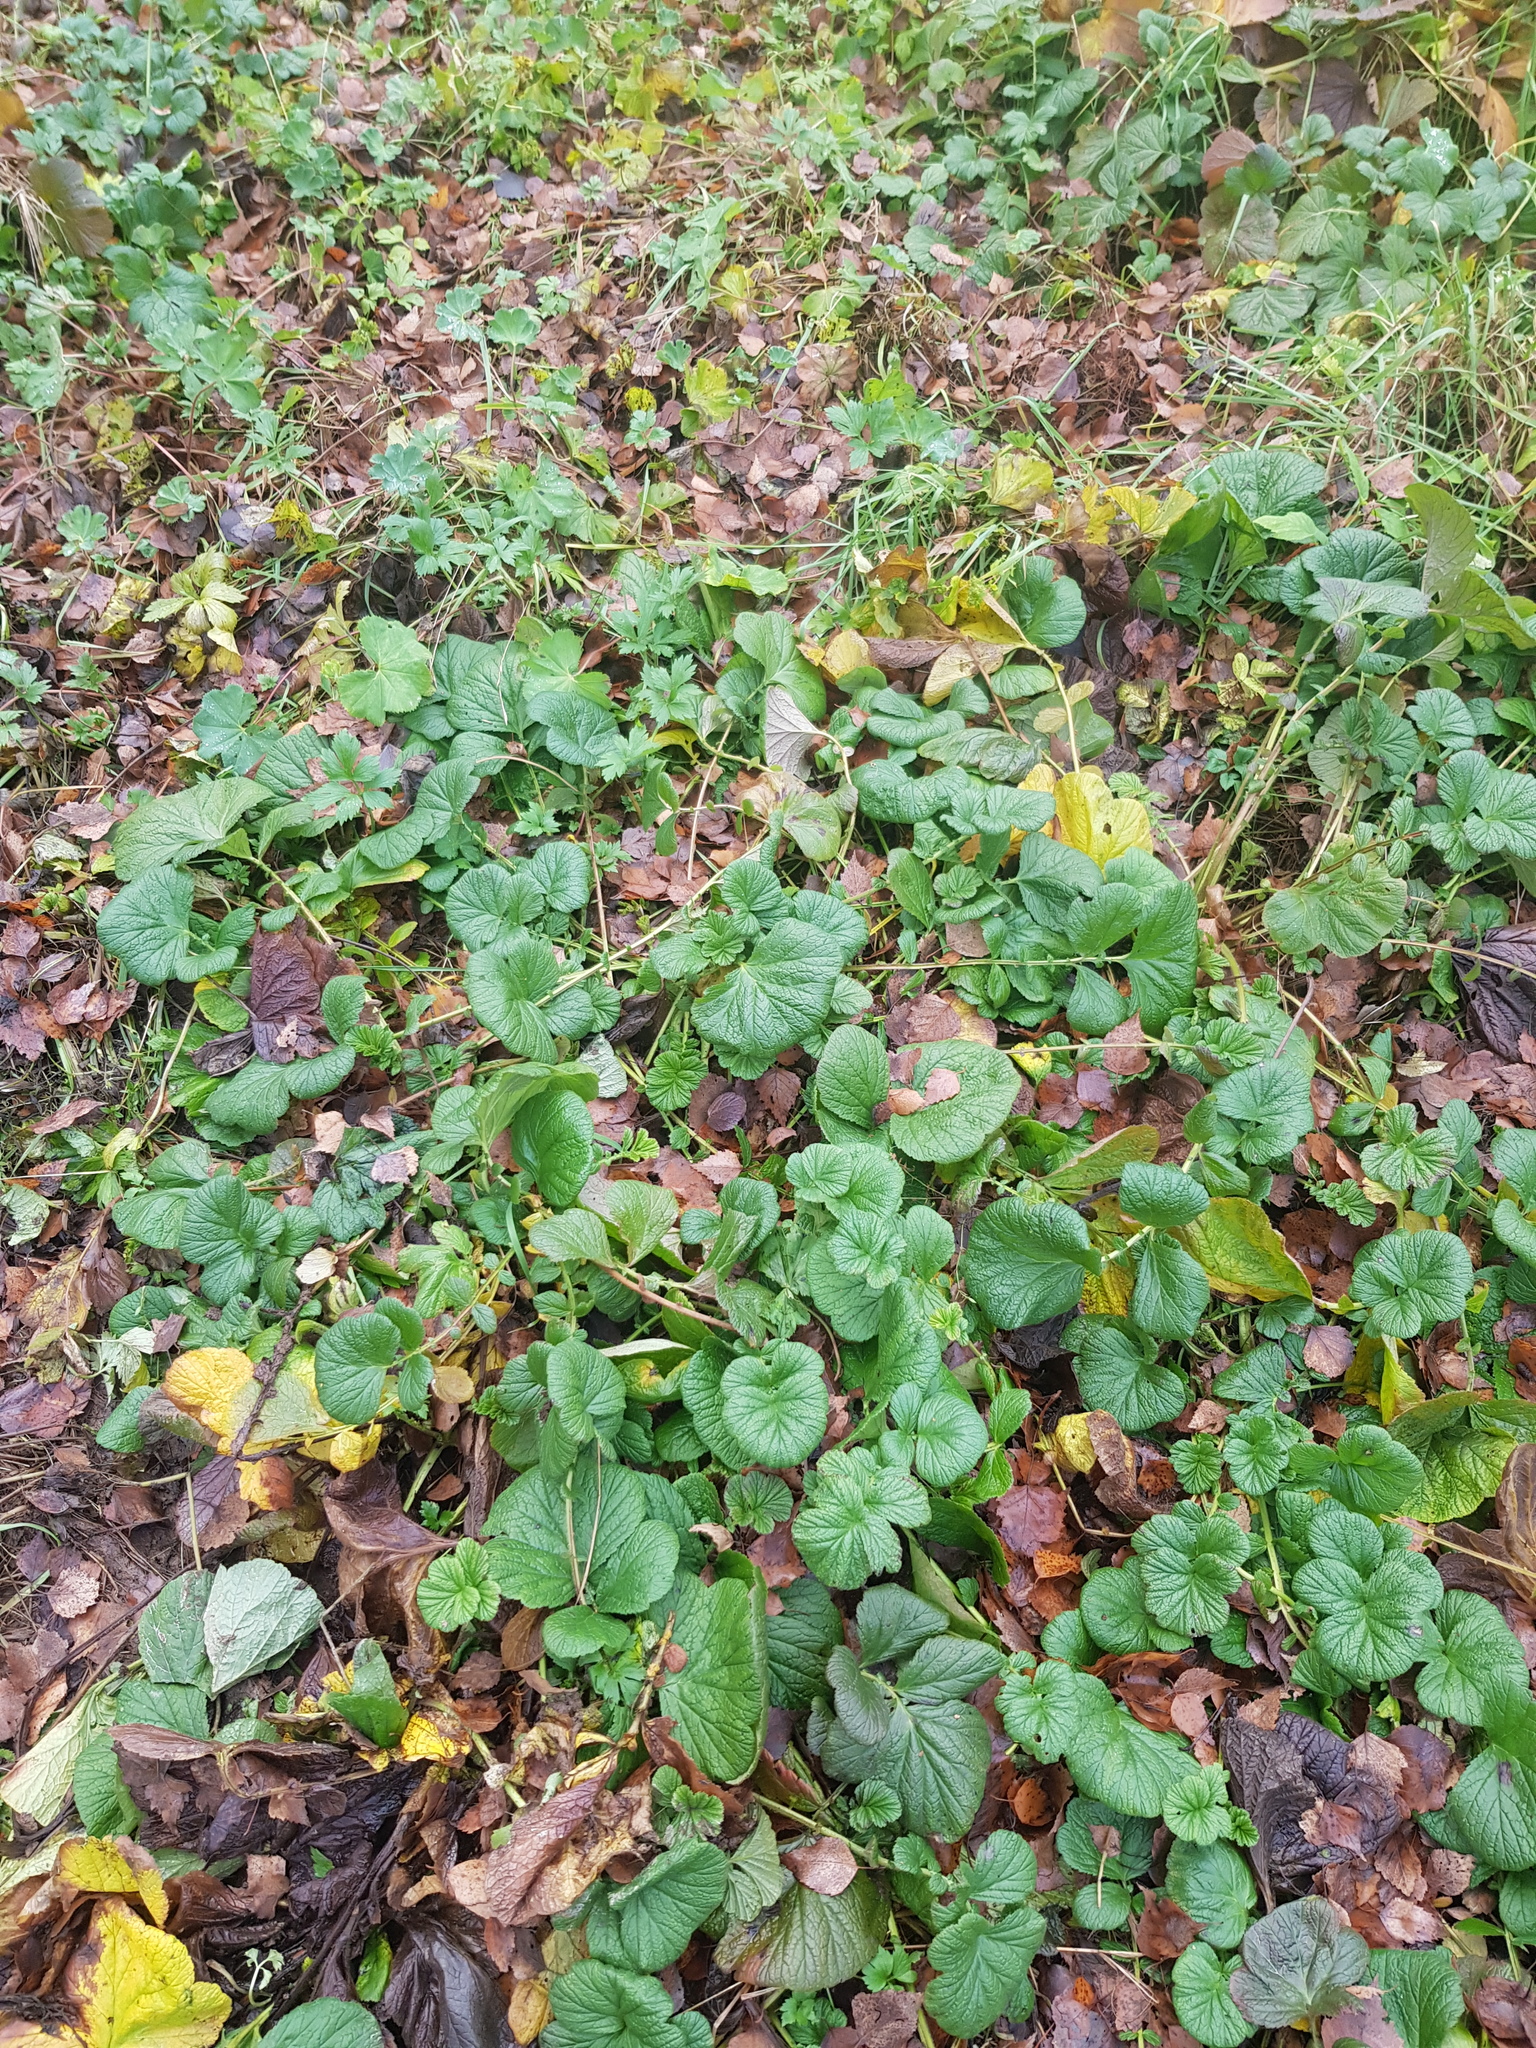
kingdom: Plantae
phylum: Tracheophyta
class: Magnoliopsida
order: Rosales
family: Rosaceae
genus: Geum
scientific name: Geum
